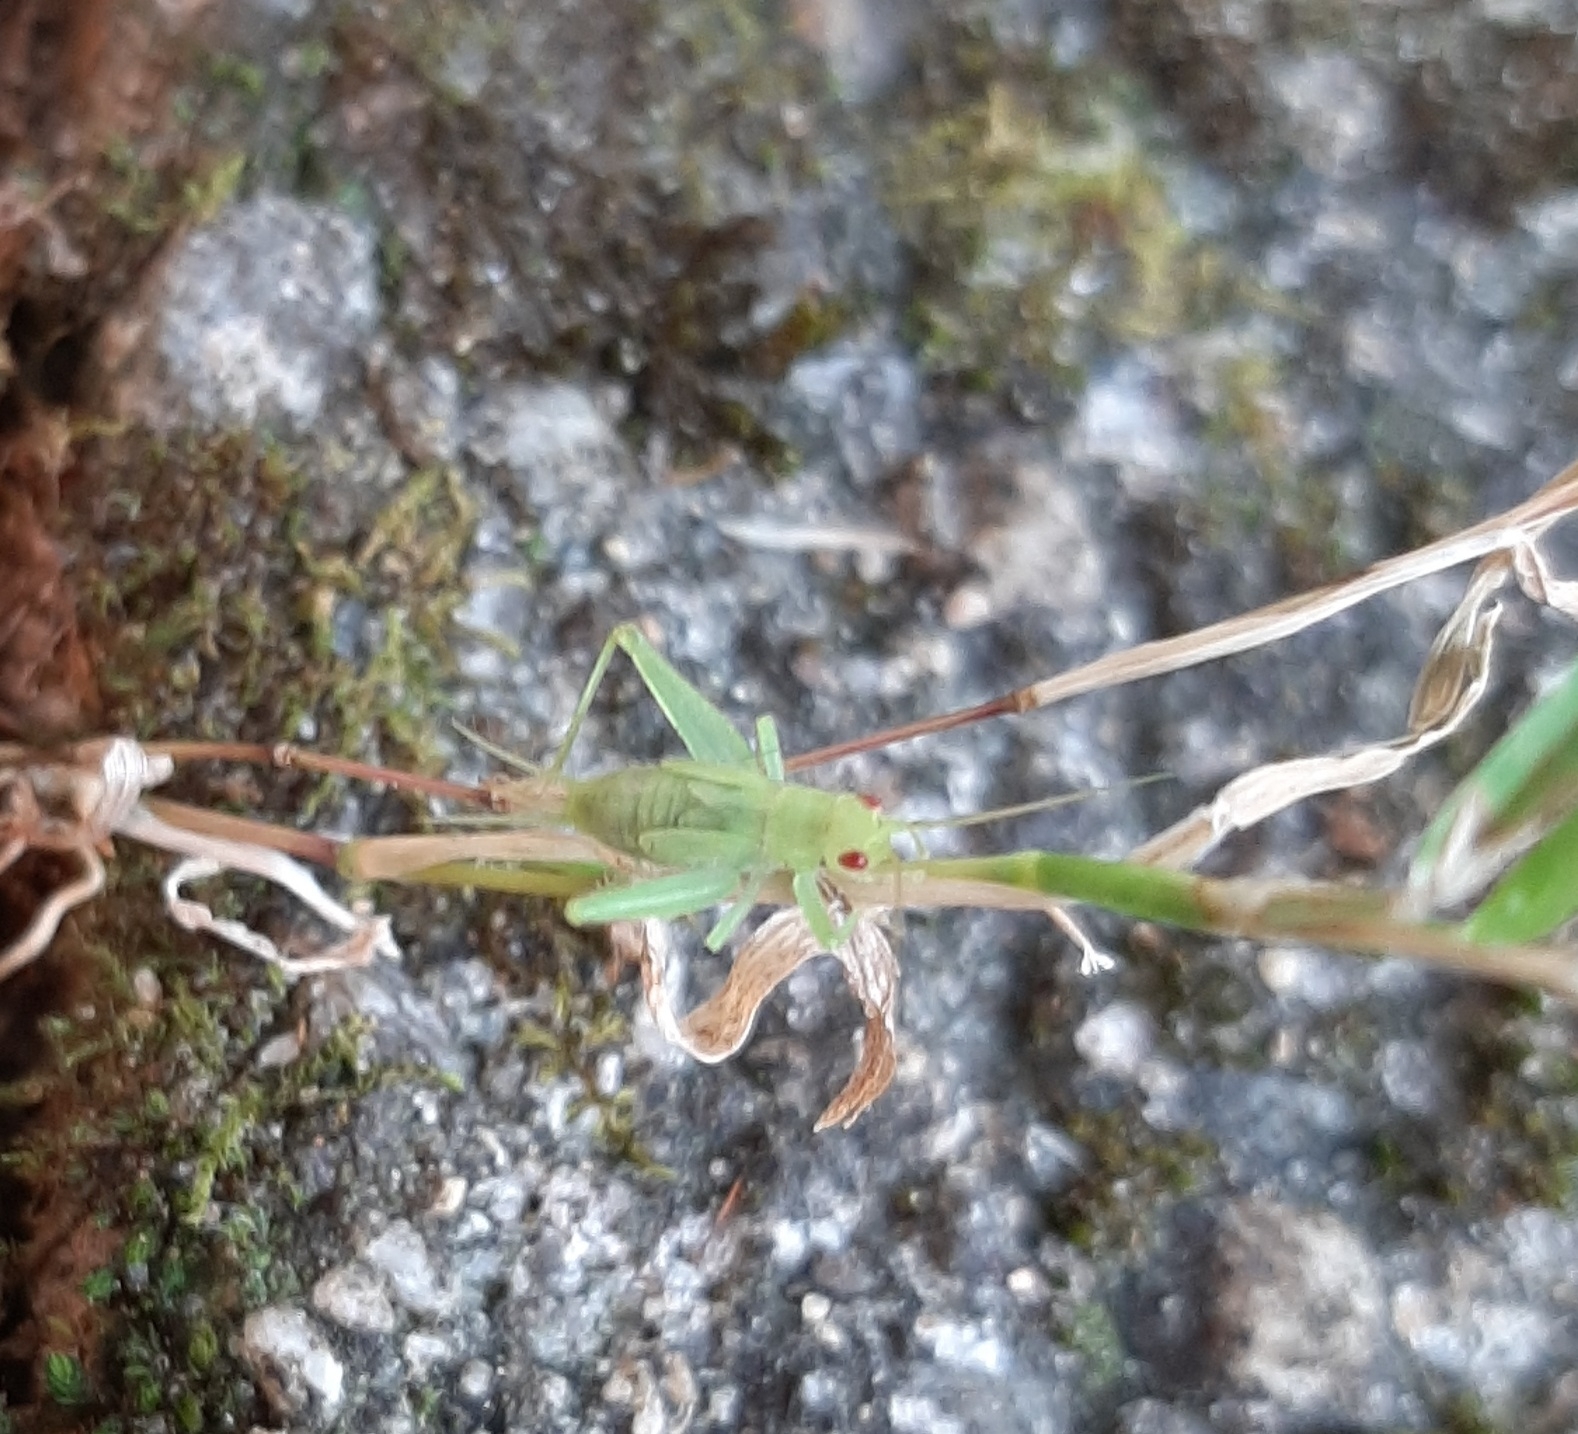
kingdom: Animalia
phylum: Arthropoda
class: Insecta
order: Orthoptera
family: Trigonidiidae
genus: Cyrtoxipha
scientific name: Cyrtoxipha columbiana
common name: Columbian trig
